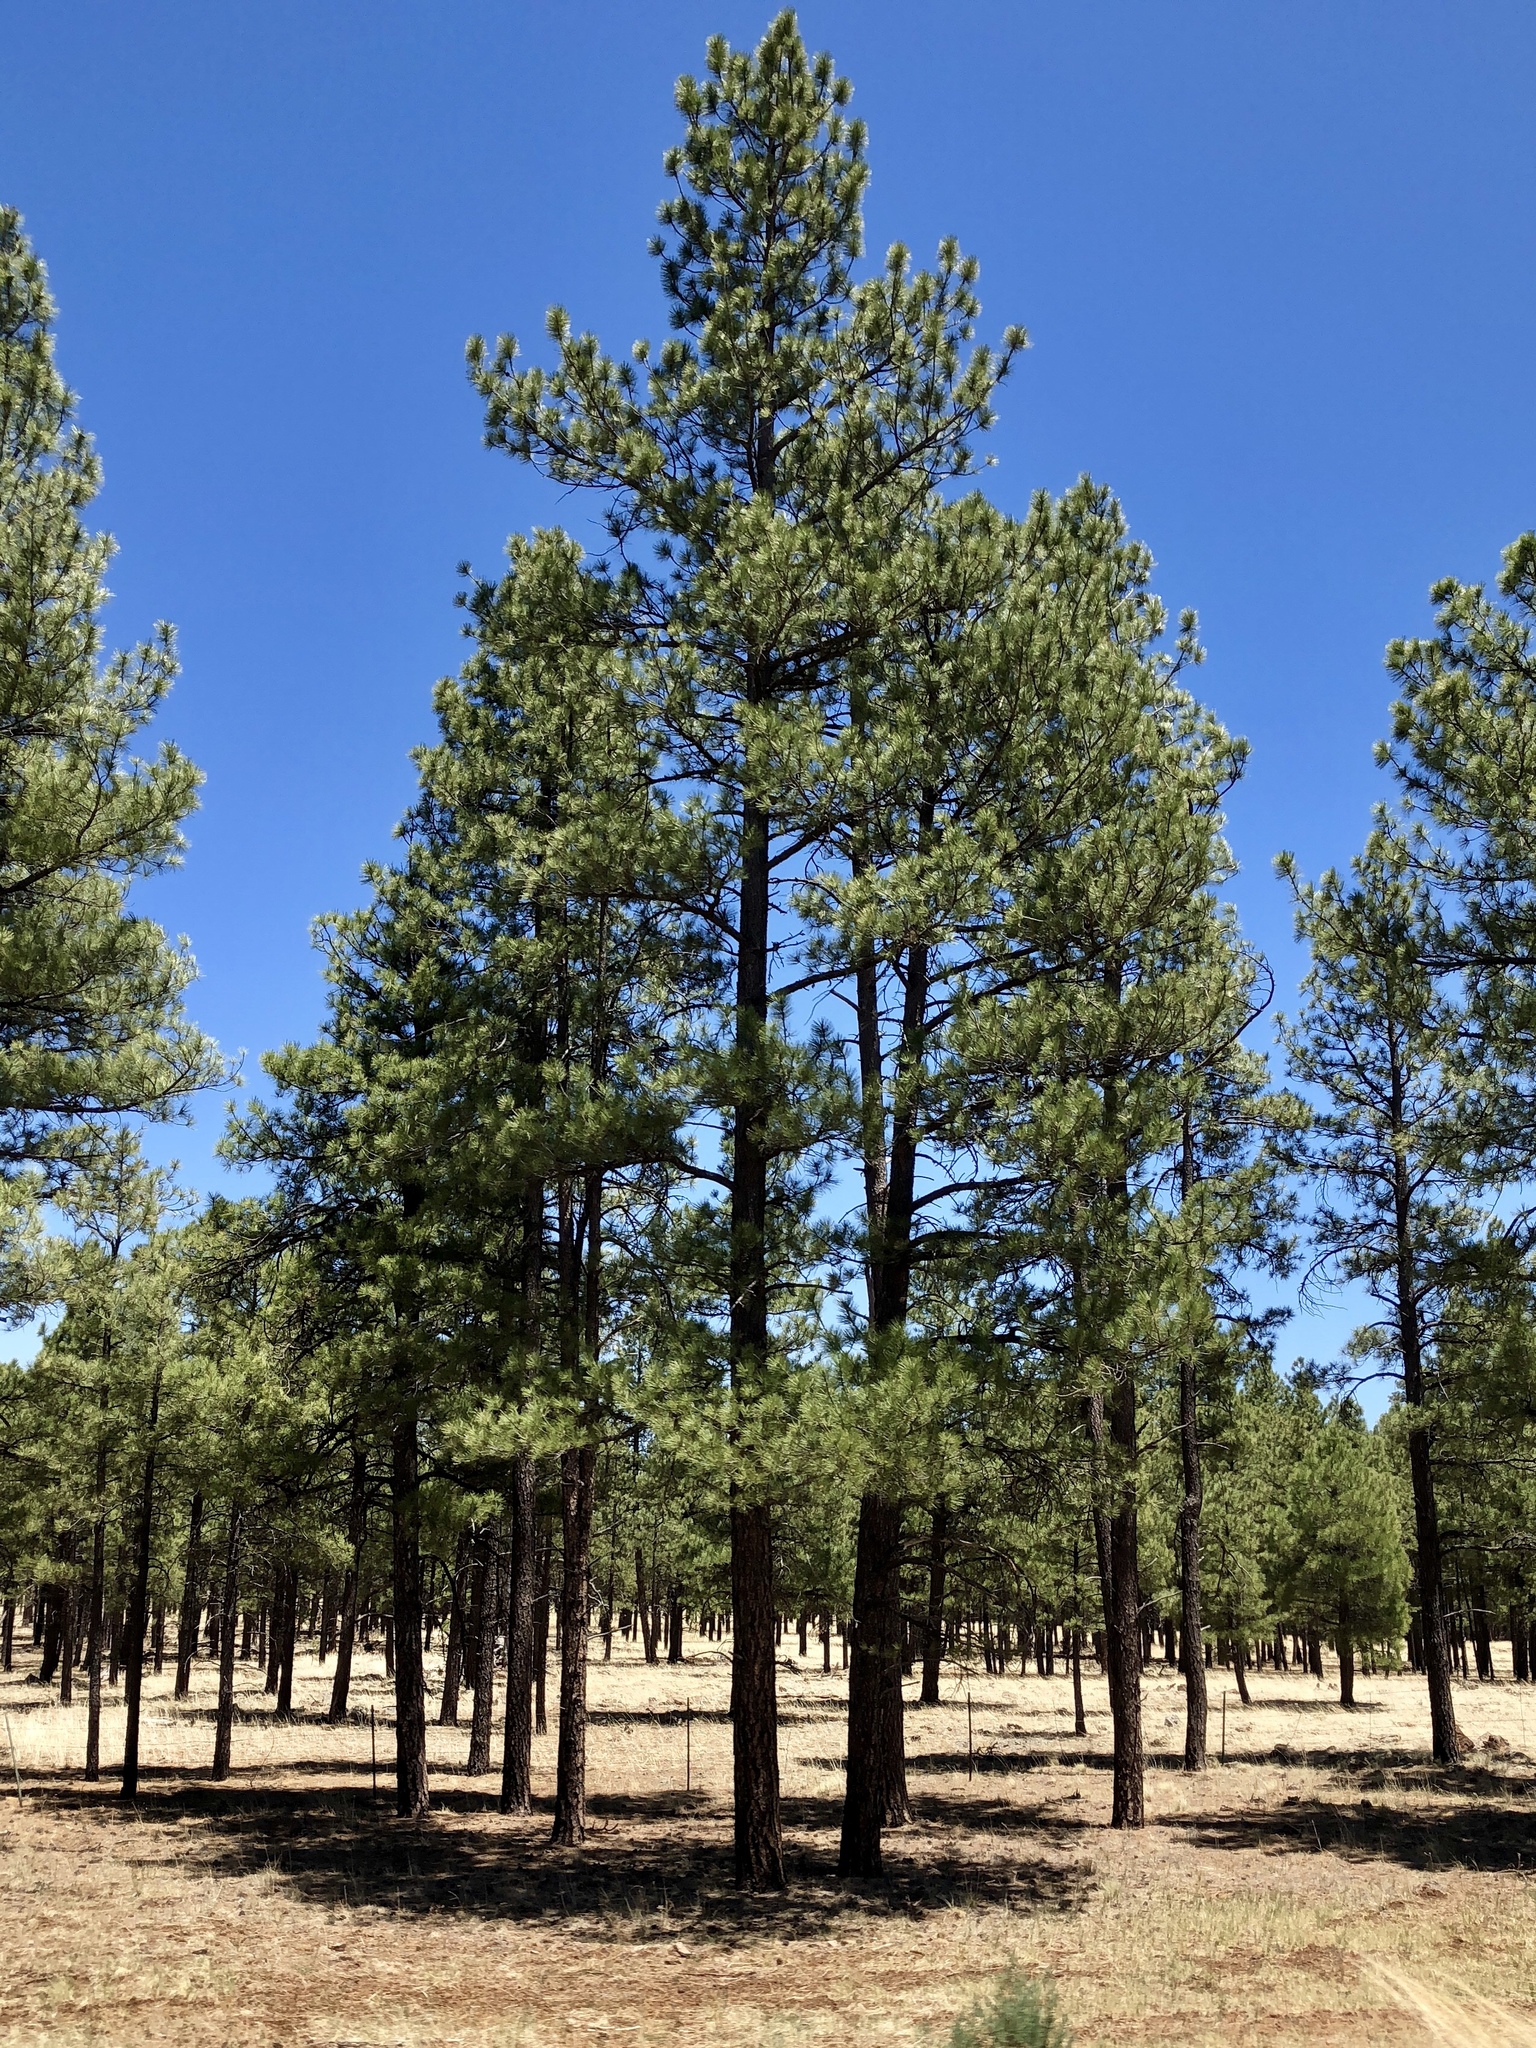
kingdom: Plantae
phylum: Tracheophyta
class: Pinopsida
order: Pinales
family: Pinaceae
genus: Pinus
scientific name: Pinus ponderosa
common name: Western yellow-pine
